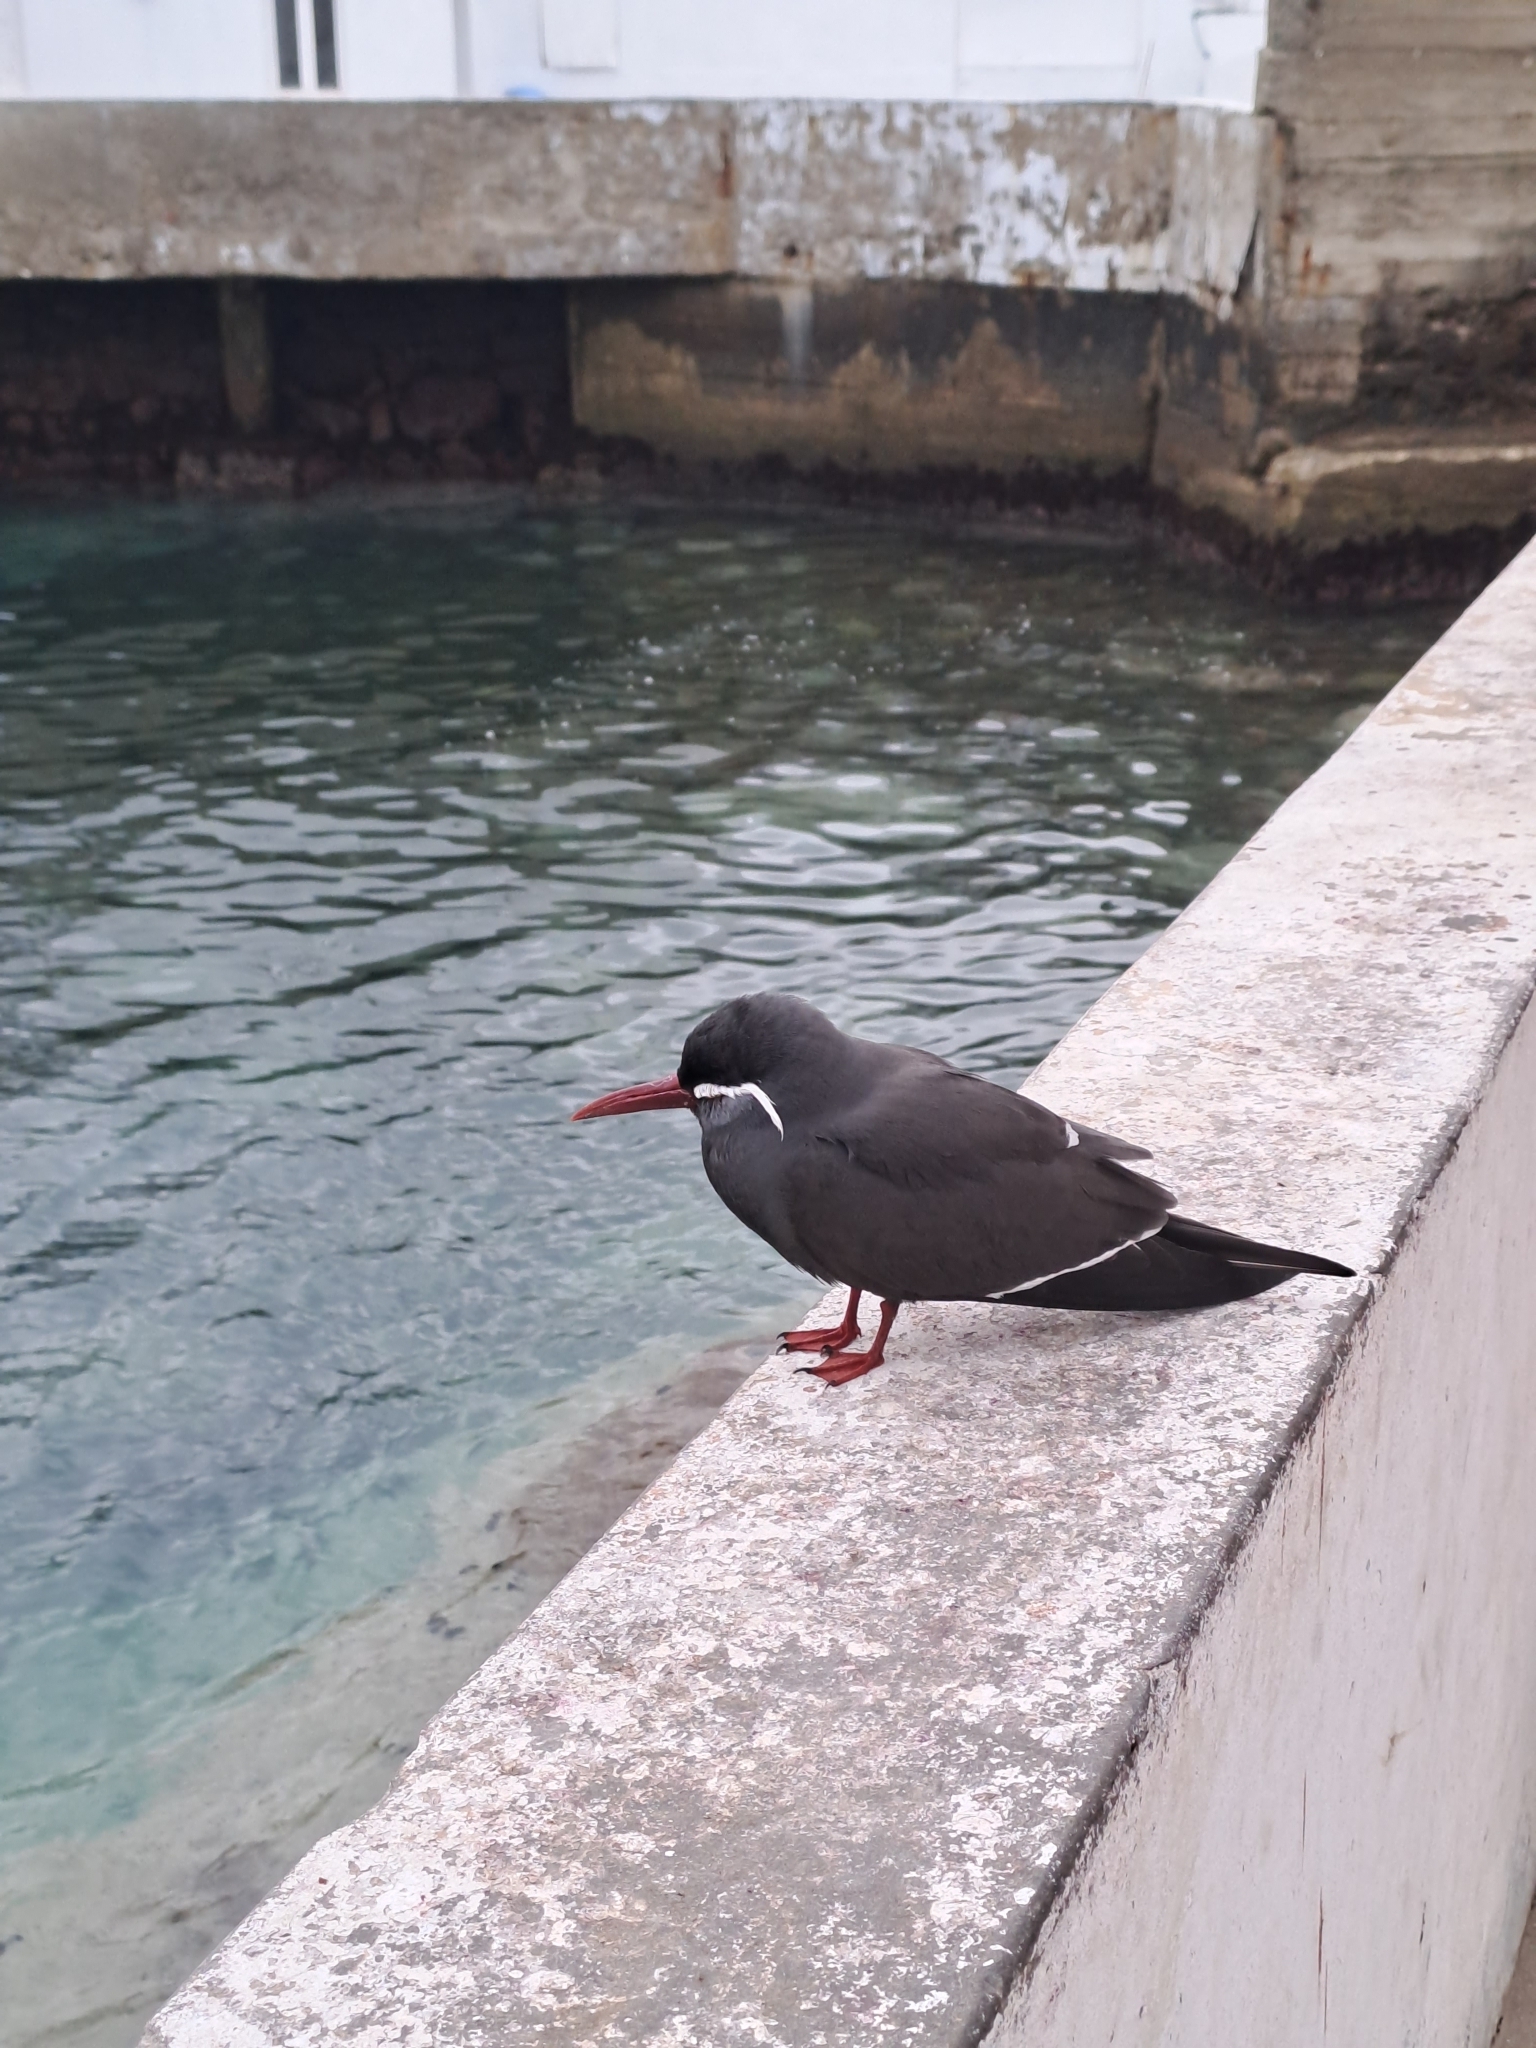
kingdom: Animalia
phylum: Chordata
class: Aves
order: Charadriiformes
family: Laridae
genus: Larosterna
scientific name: Larosterna inca
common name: Inca tern
